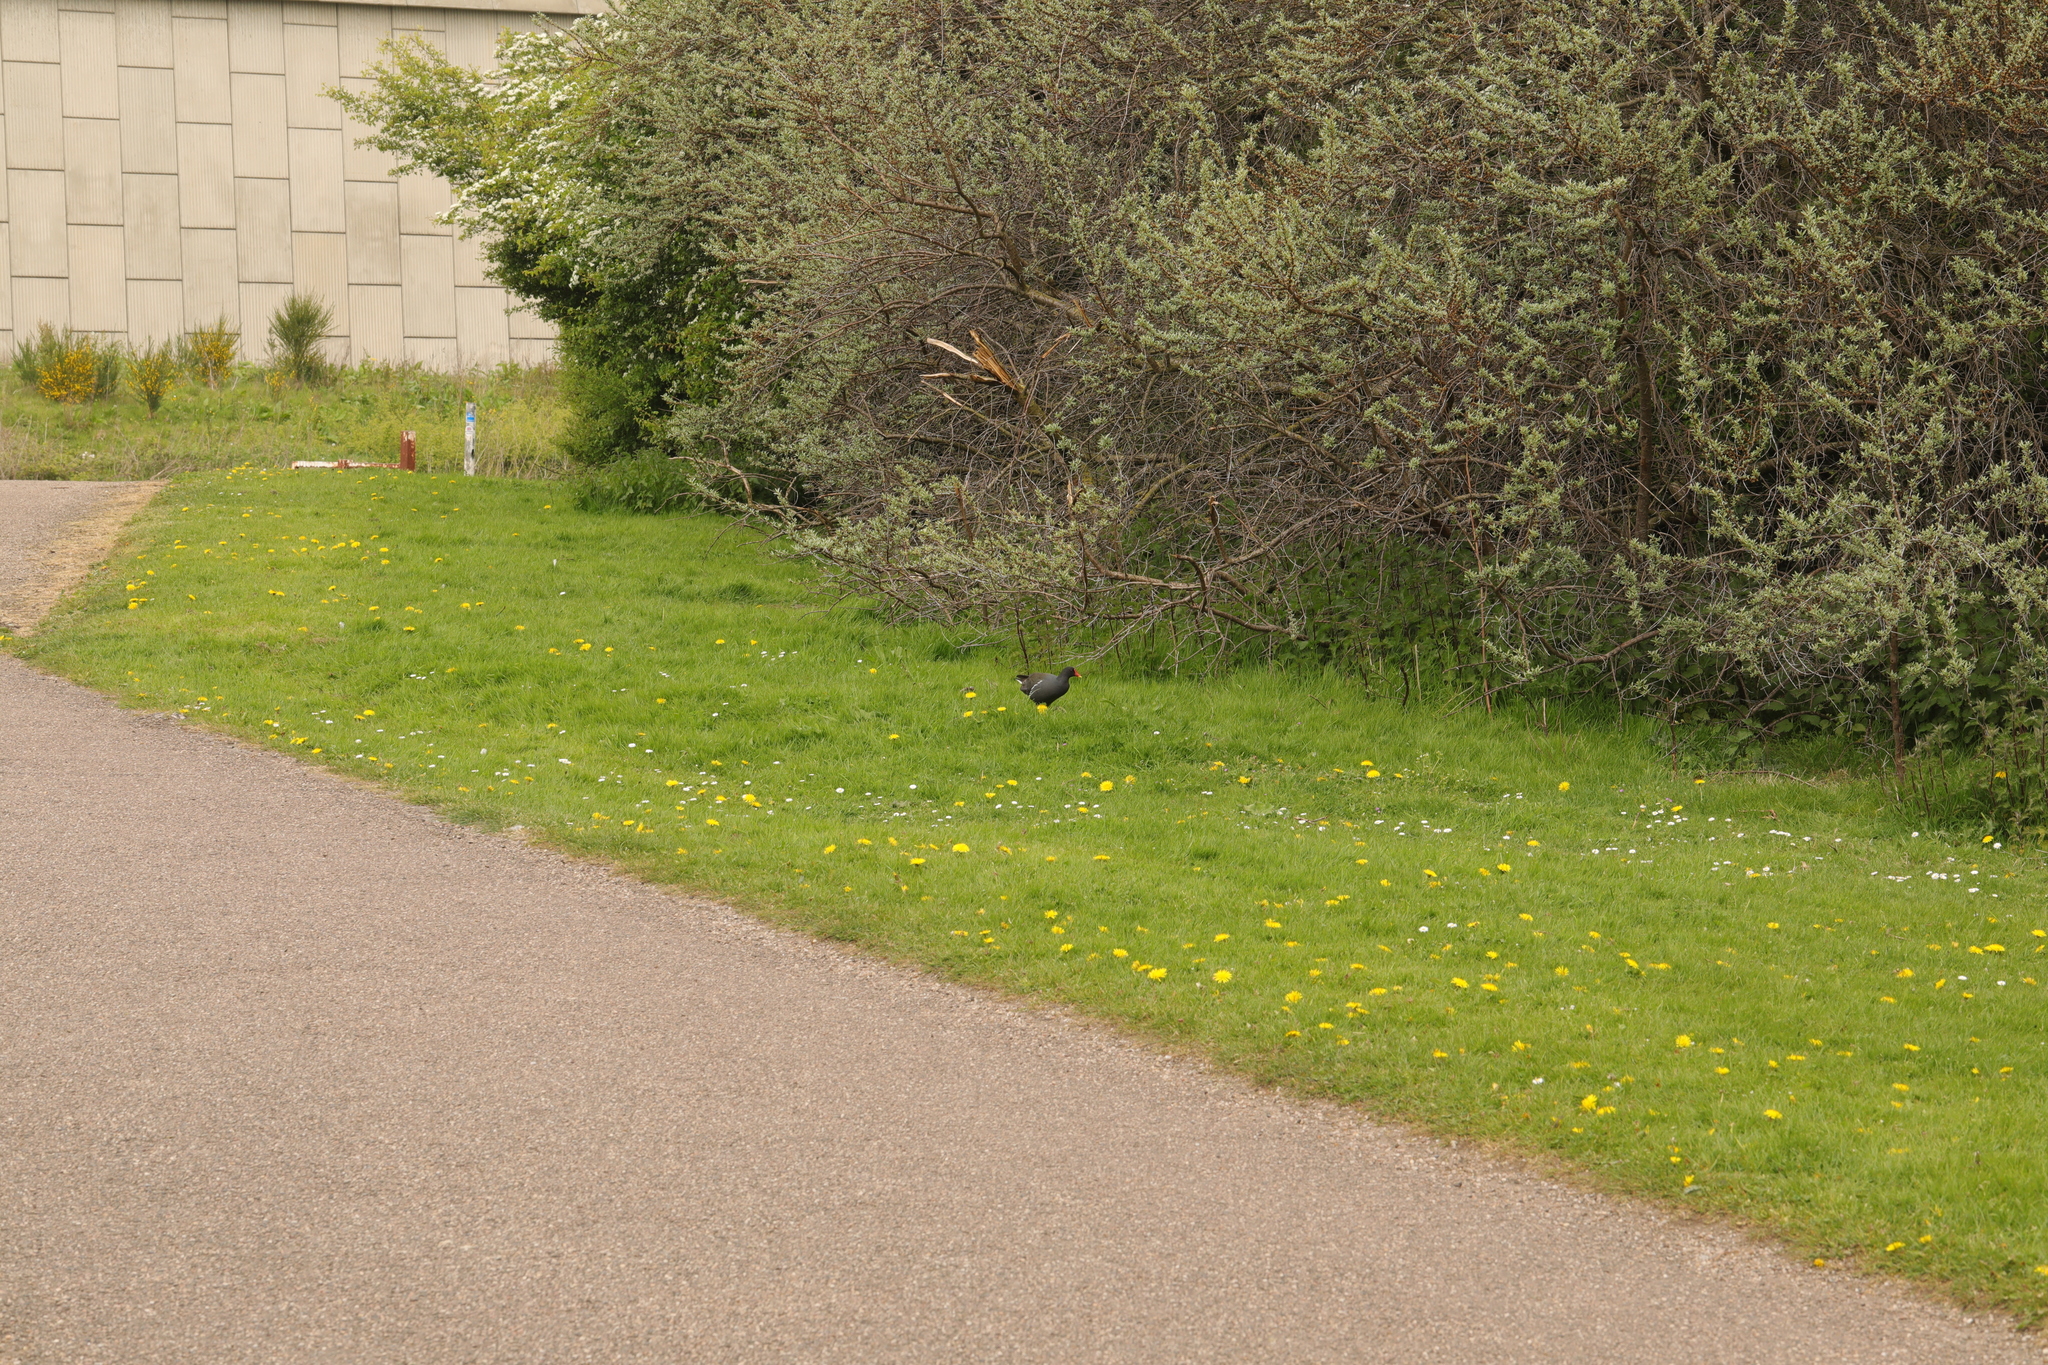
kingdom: Animalia
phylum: Chordata
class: Aves
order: Gruiformes
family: Rallidae
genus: Gallinula
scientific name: Gallinula chloropus
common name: Common moorhen
